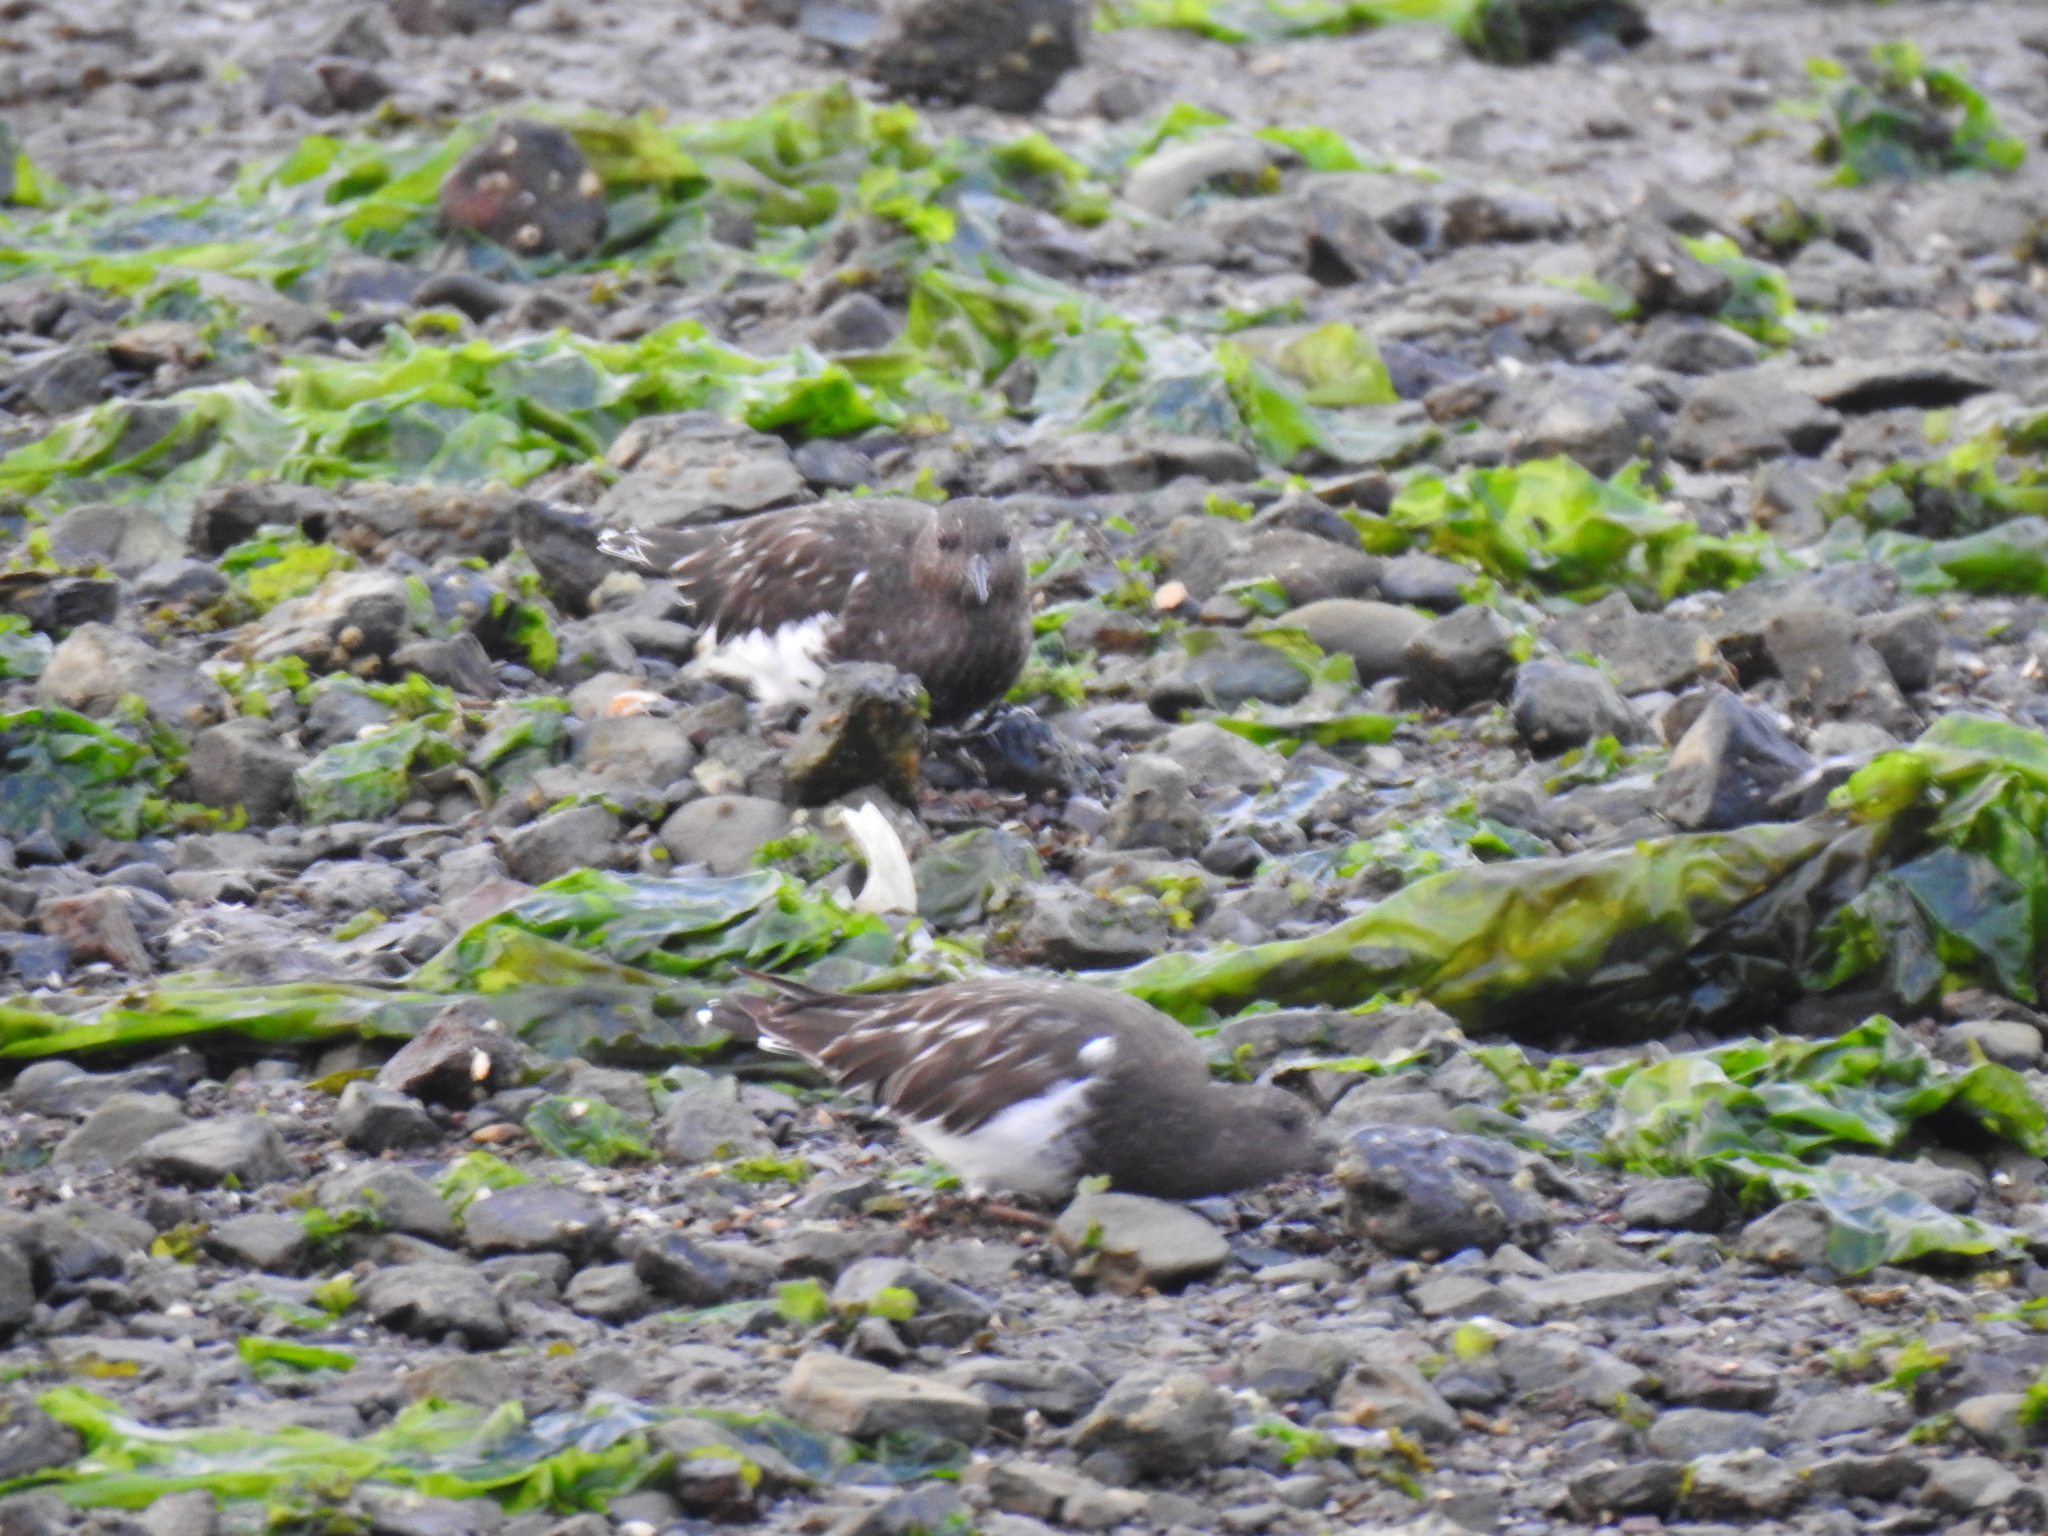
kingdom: Animalia
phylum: Chordata
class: Aves
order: Charadriiformes
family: Scolopacidae
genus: Arenaria
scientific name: Arenaria melanocephala
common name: Black turnstone
